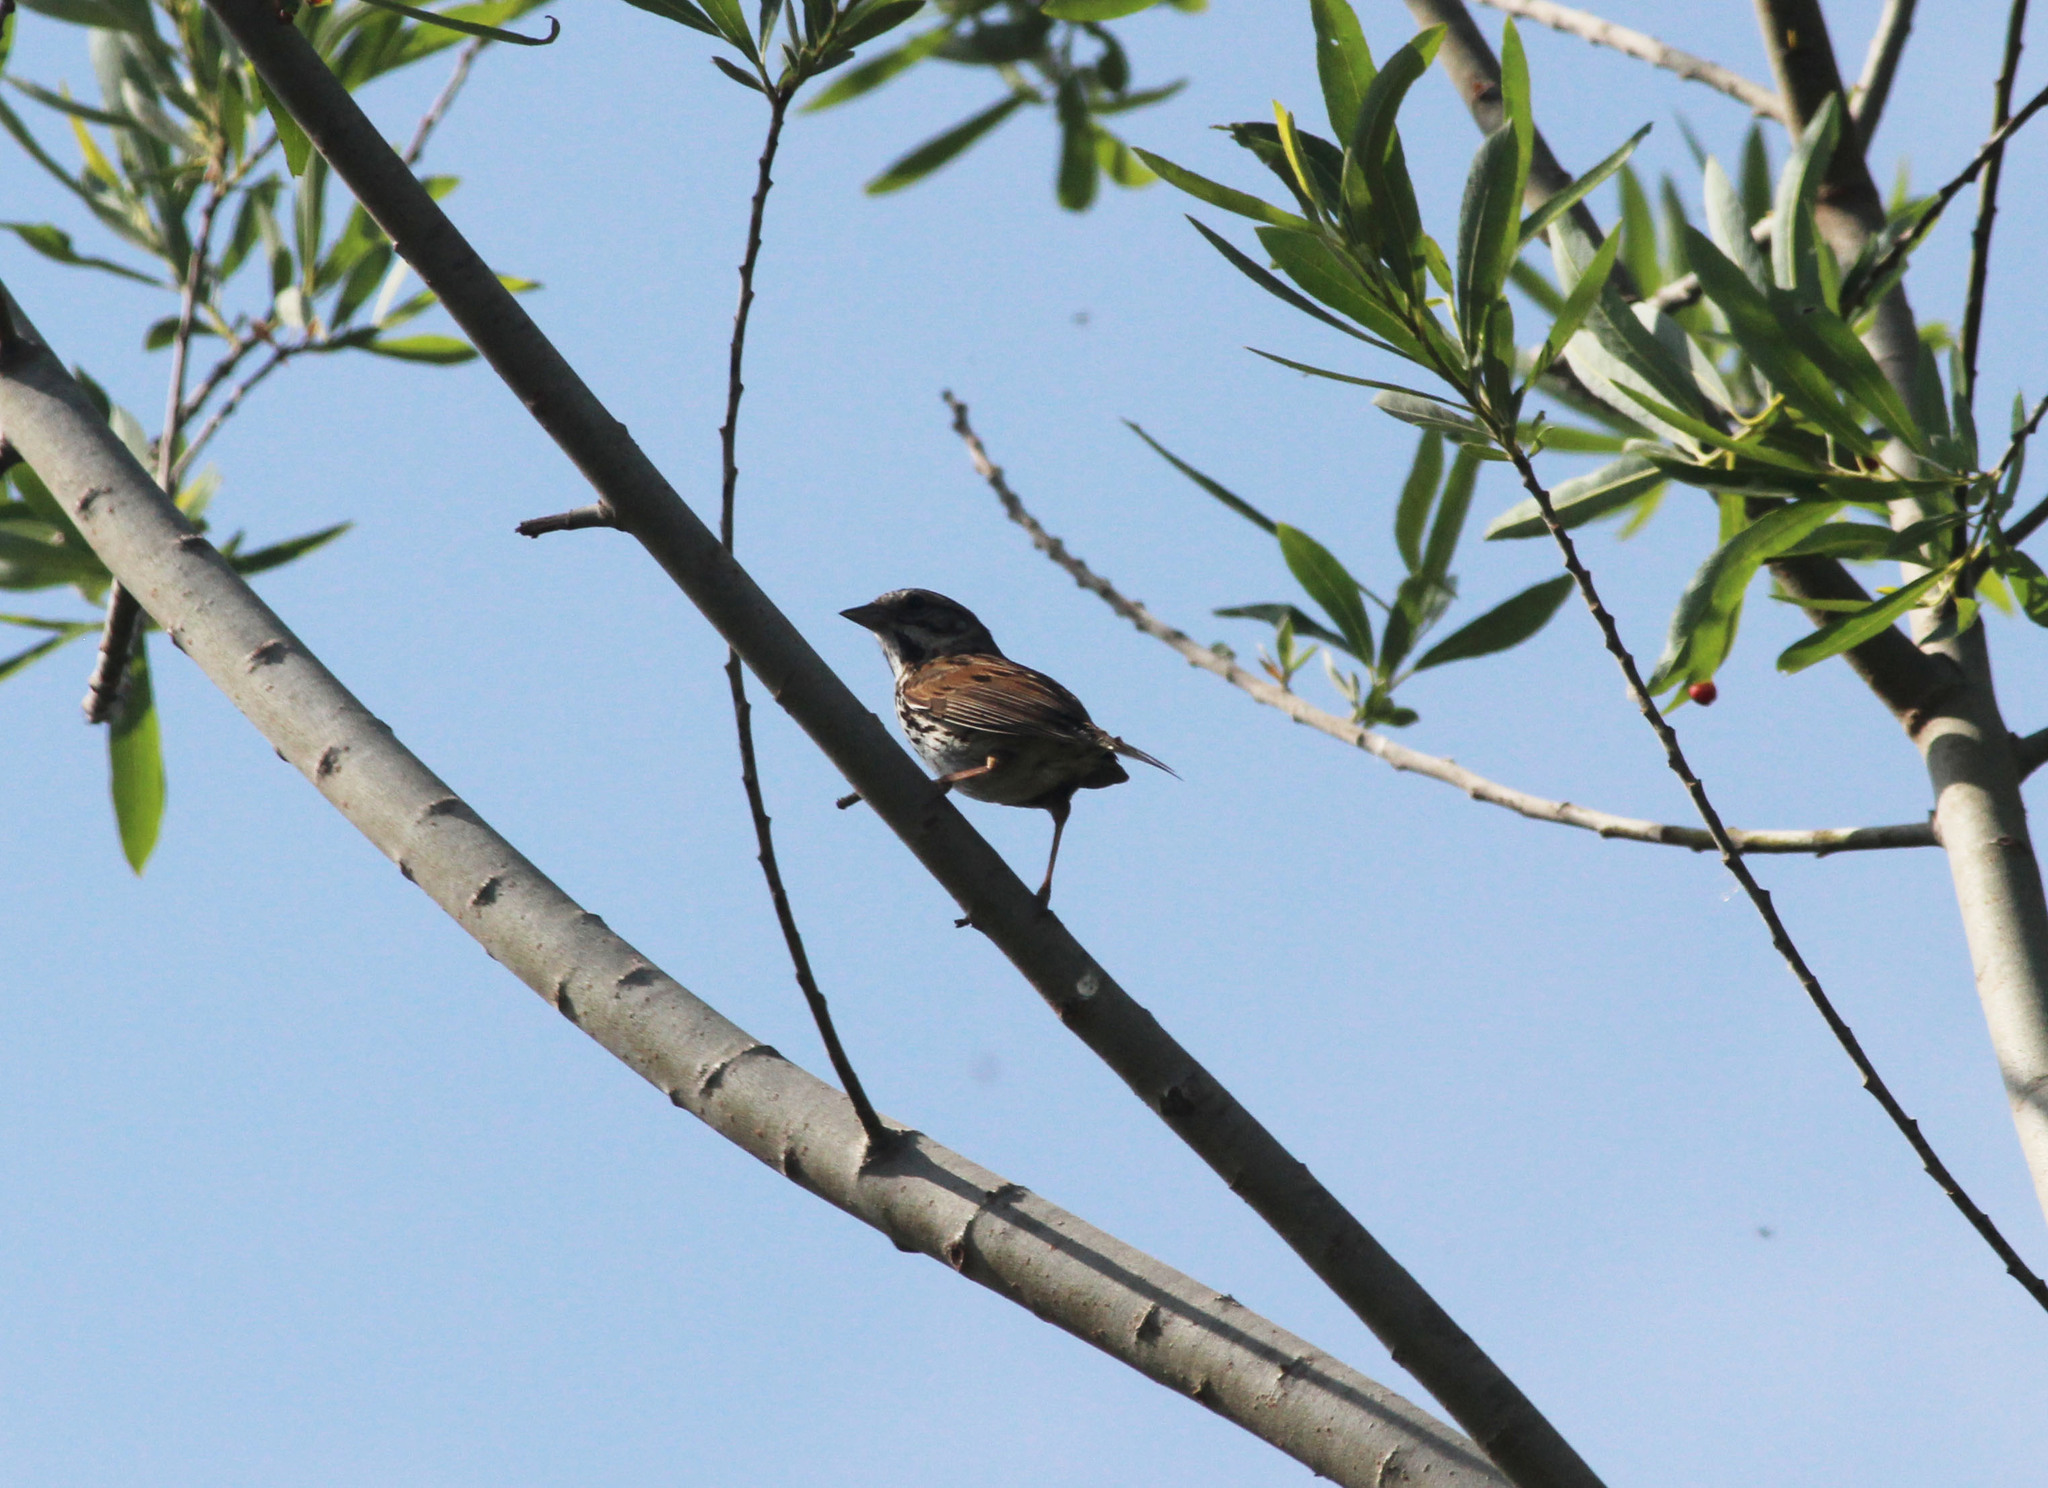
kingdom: Animalia
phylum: Chordata
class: Aves
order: Passeriformes
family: Passerellidae
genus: Melospiza
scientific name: Melospiza melodia
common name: Song sparrow
